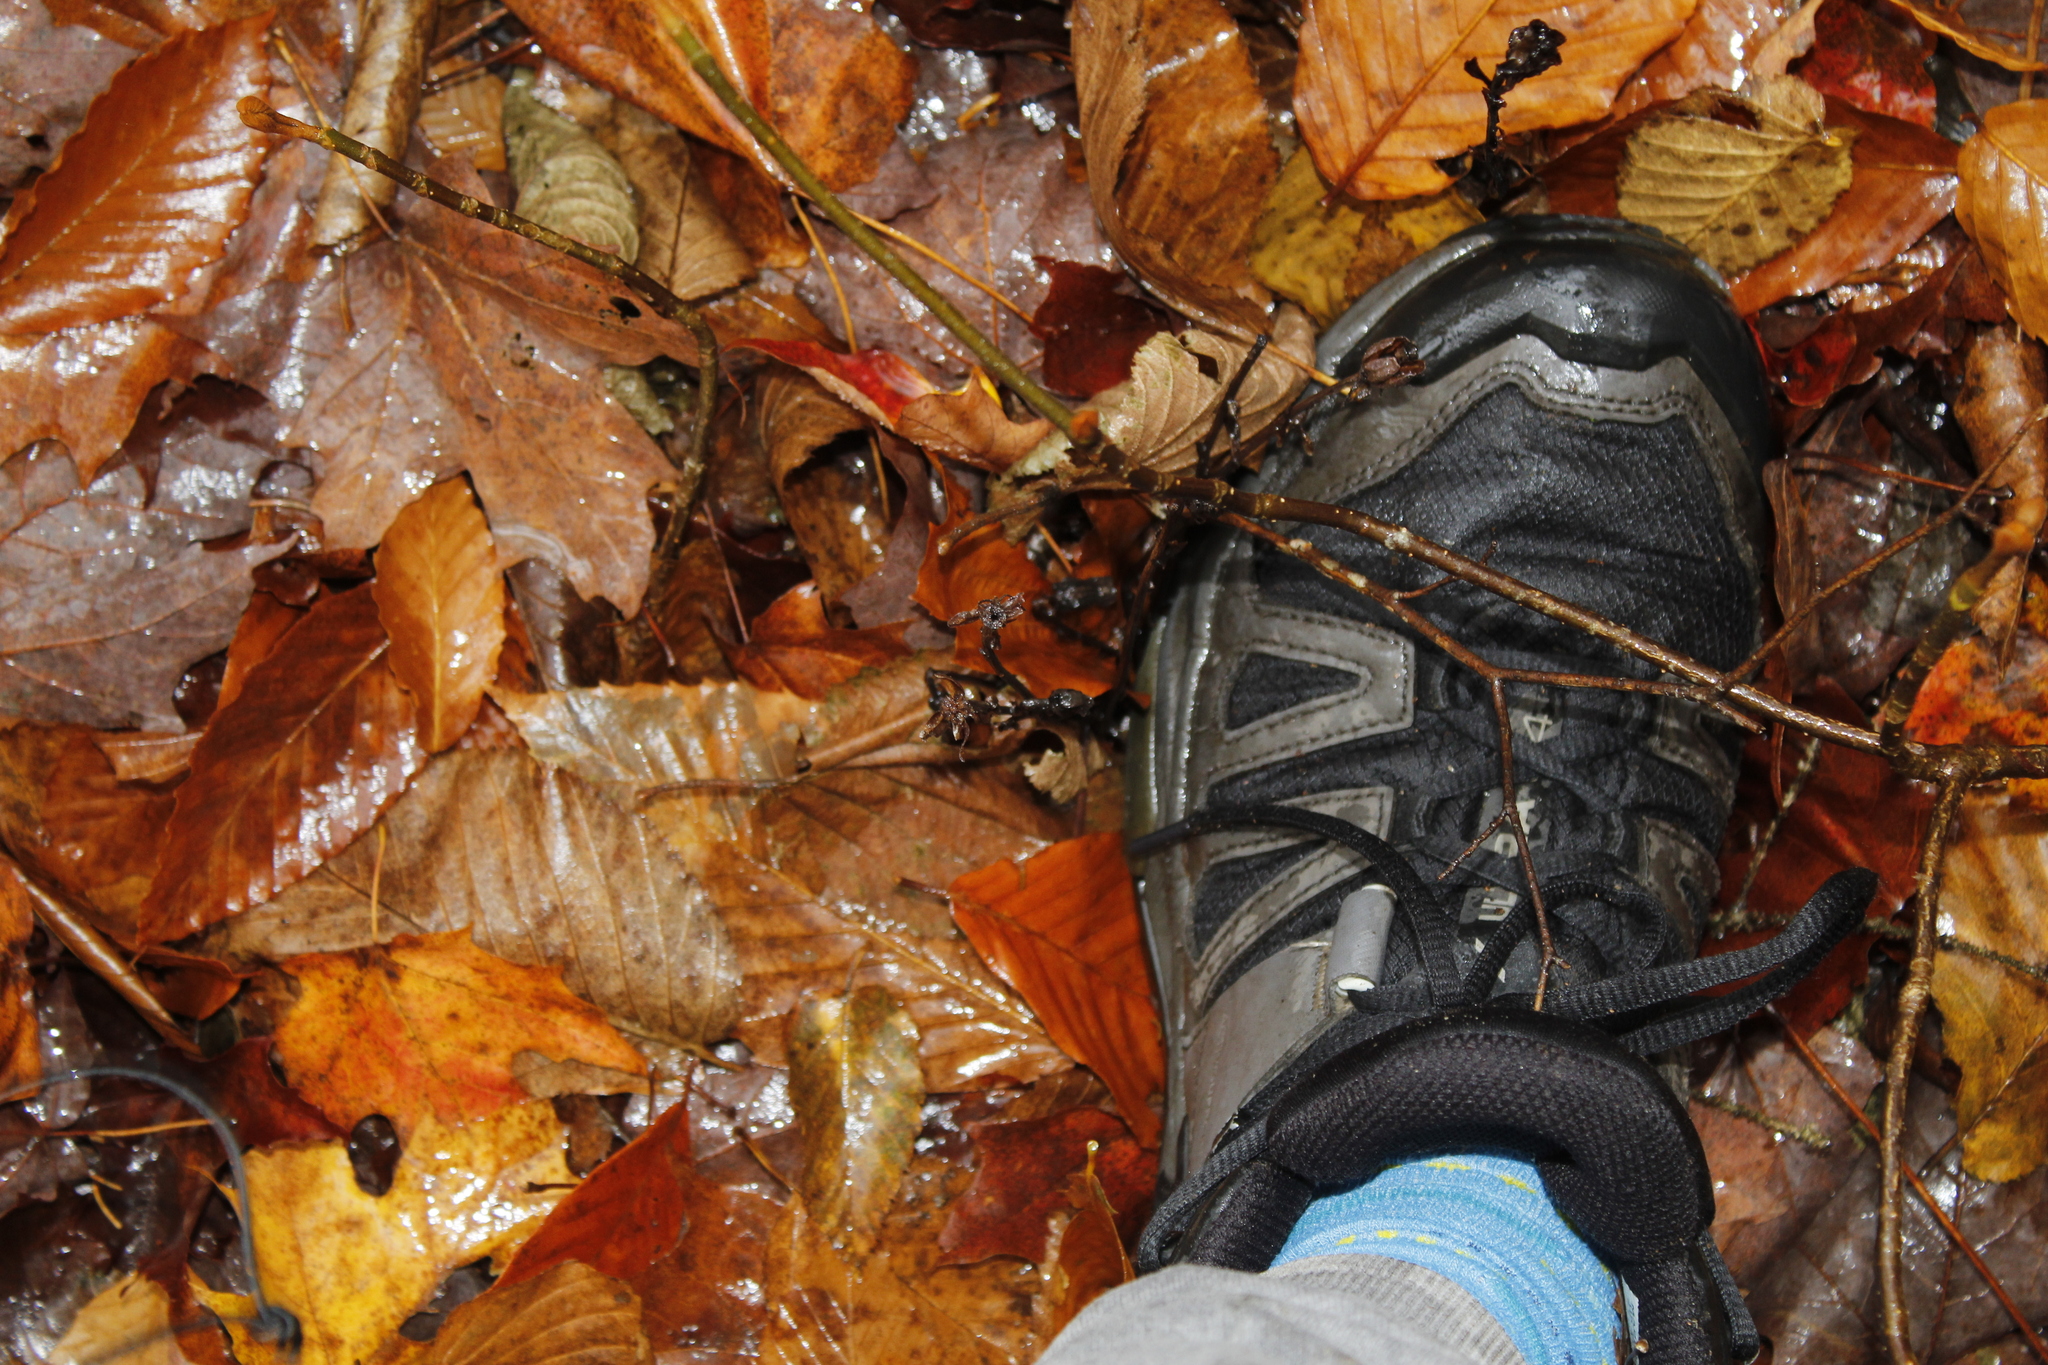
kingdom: Plantae
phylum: Tracheophyta
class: Magnoliopsida
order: Ericales
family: Ericaceae
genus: Monotropa
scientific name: Monotropa uniflora
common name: Convulsion root
